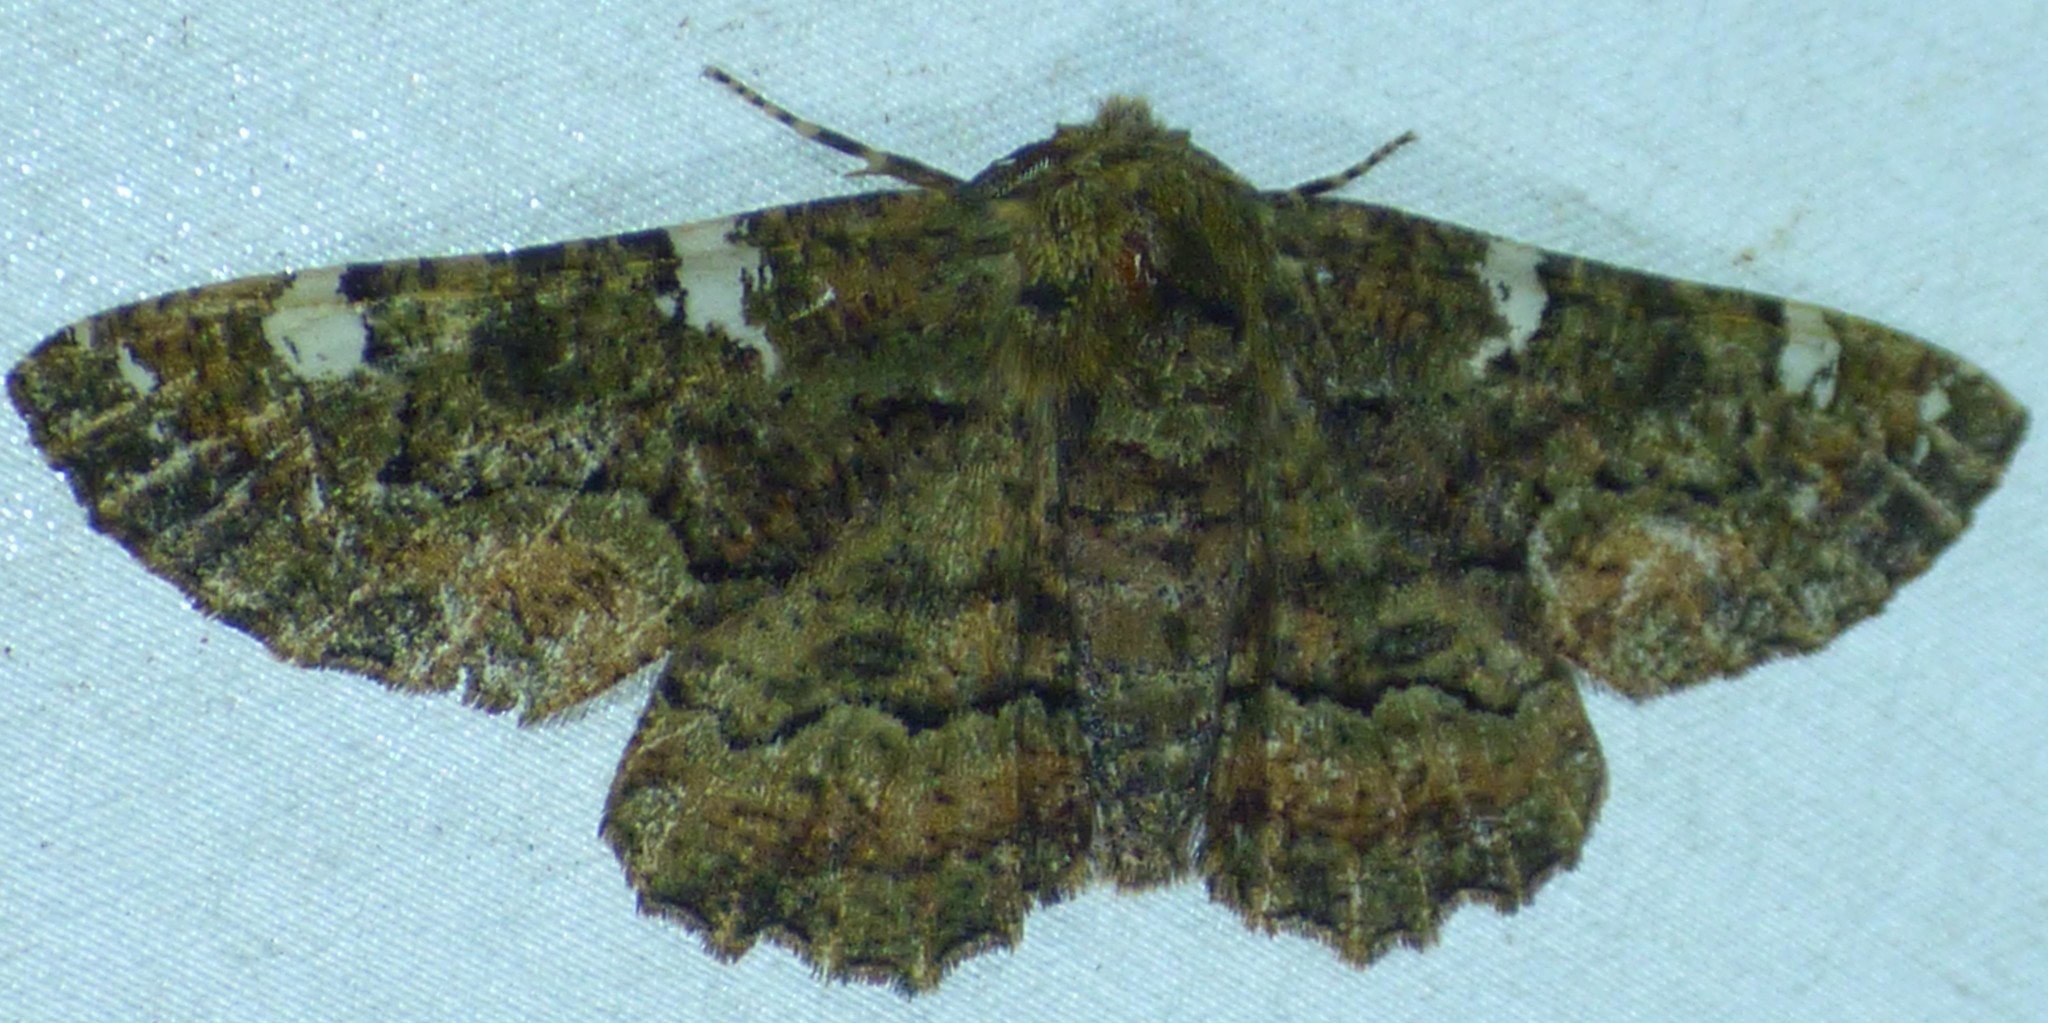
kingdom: Animalia
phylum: Arthropoda
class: Insecta
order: Lepidoptera
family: Geometridae
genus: Phaeoura
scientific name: Phaeoura quernaria
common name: Oak beauty
